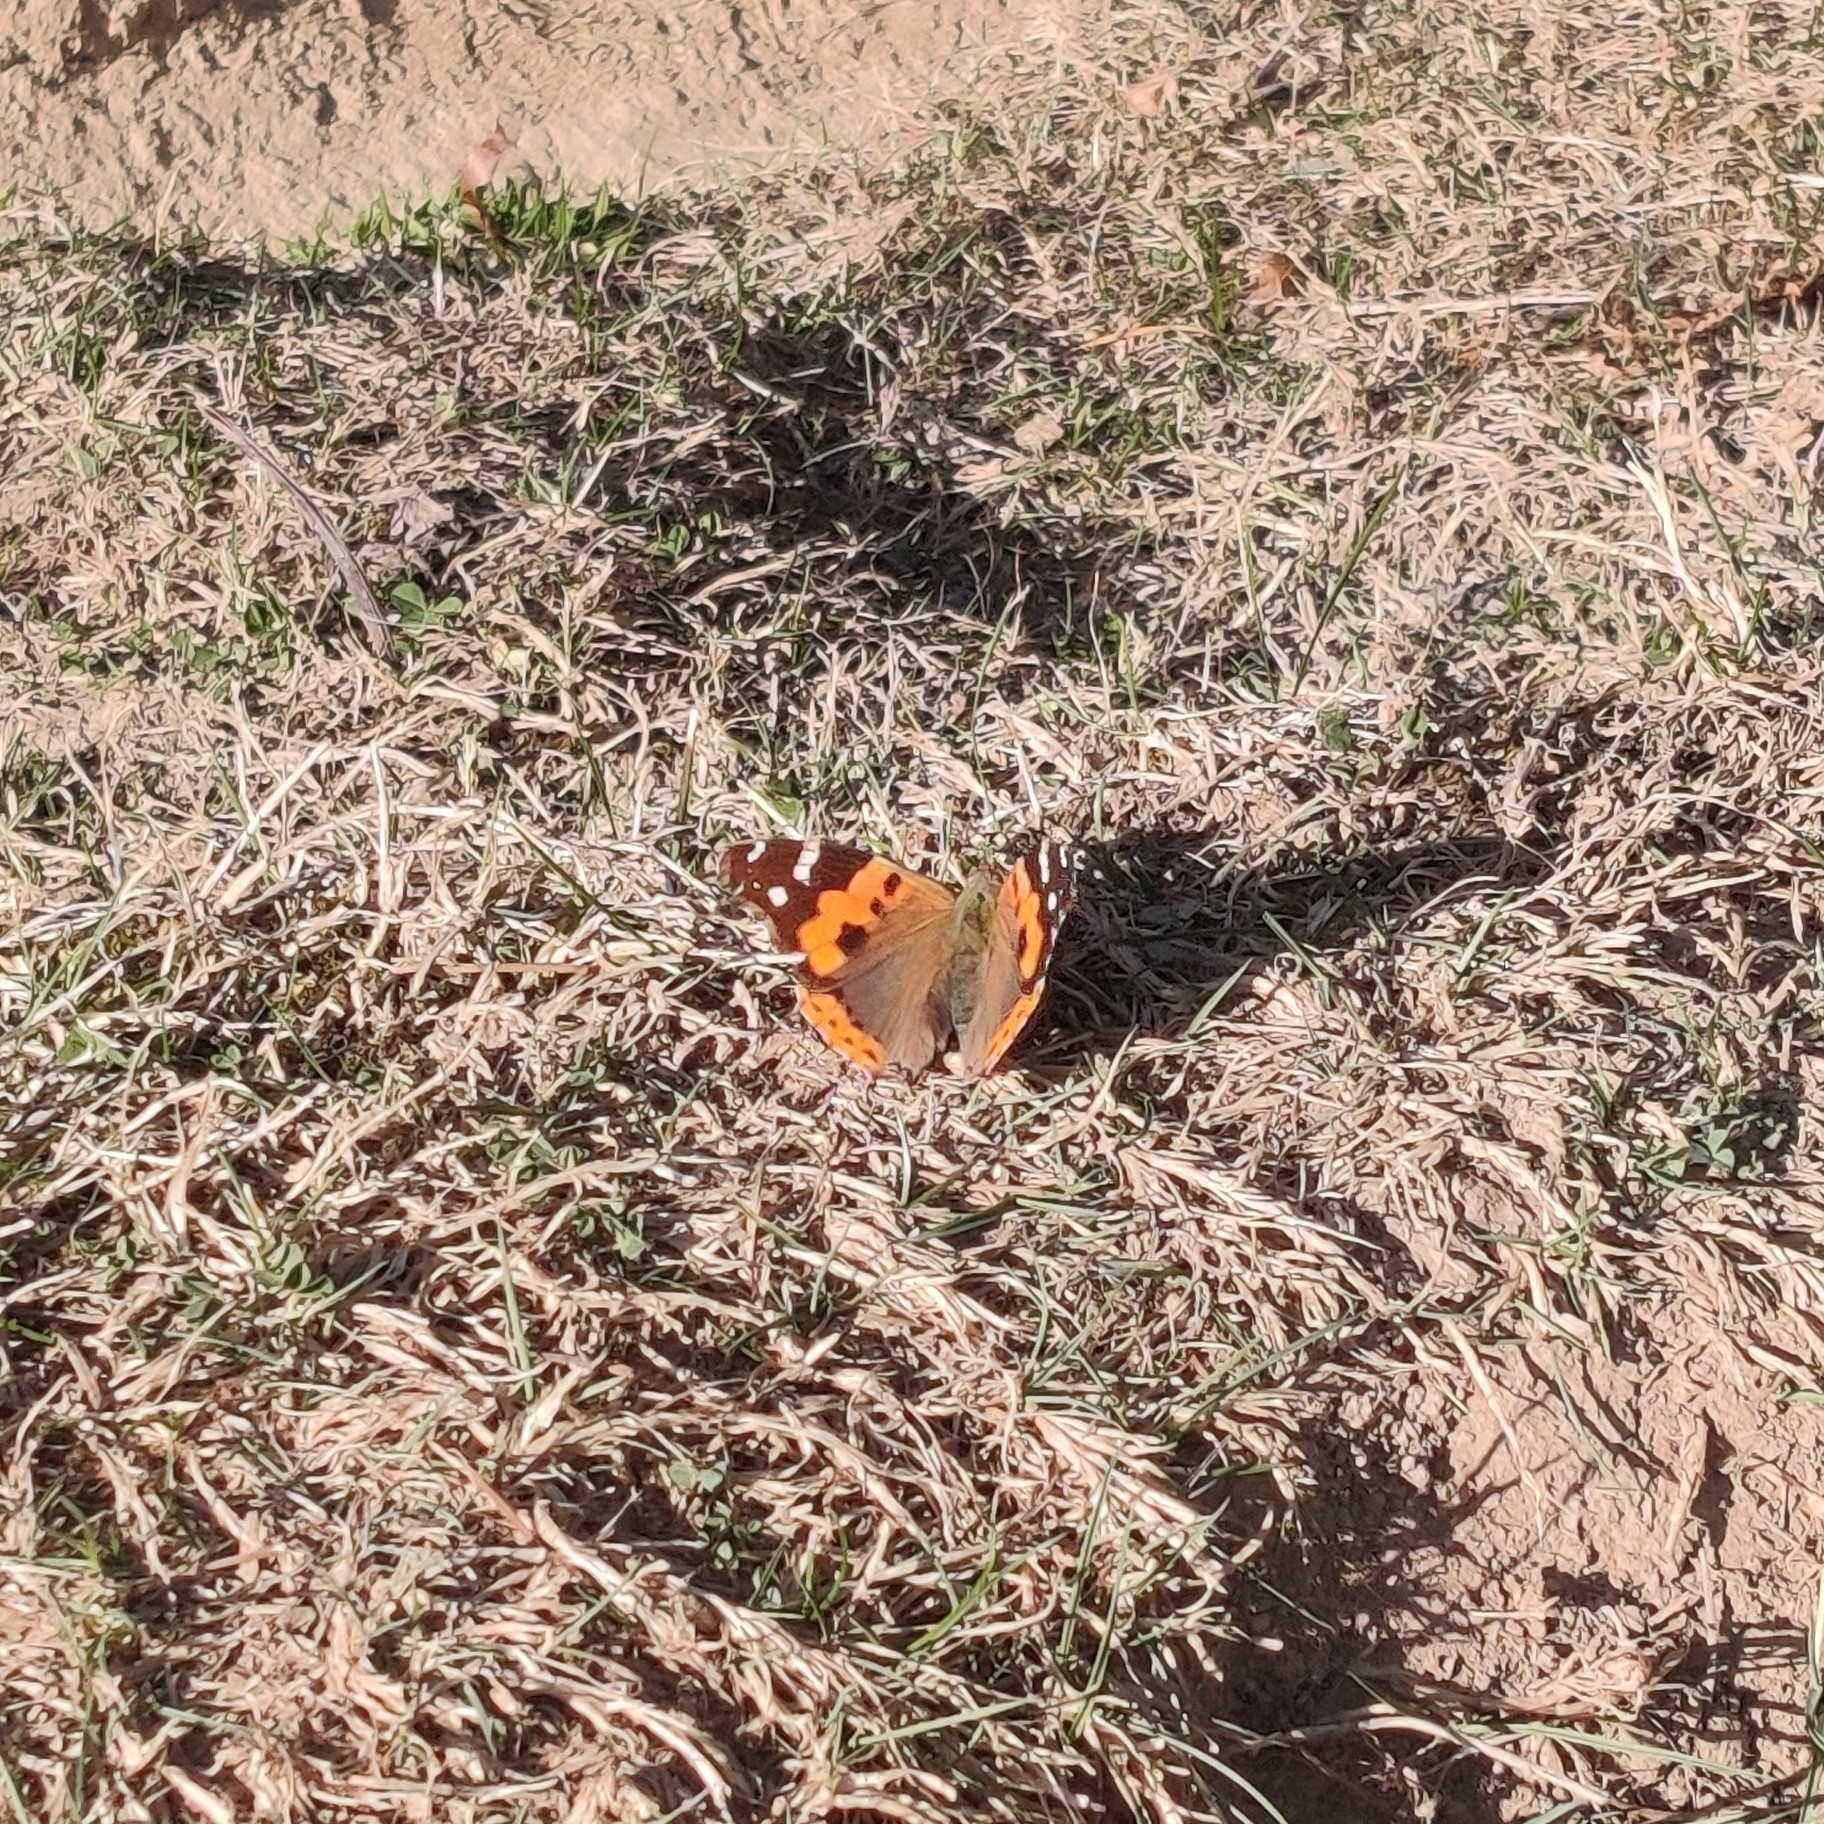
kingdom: Animalia
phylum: Arthropoda
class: Insecta
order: Lepidoptera
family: Nymphalidae
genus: Vanessa
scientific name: Vanessa indica
